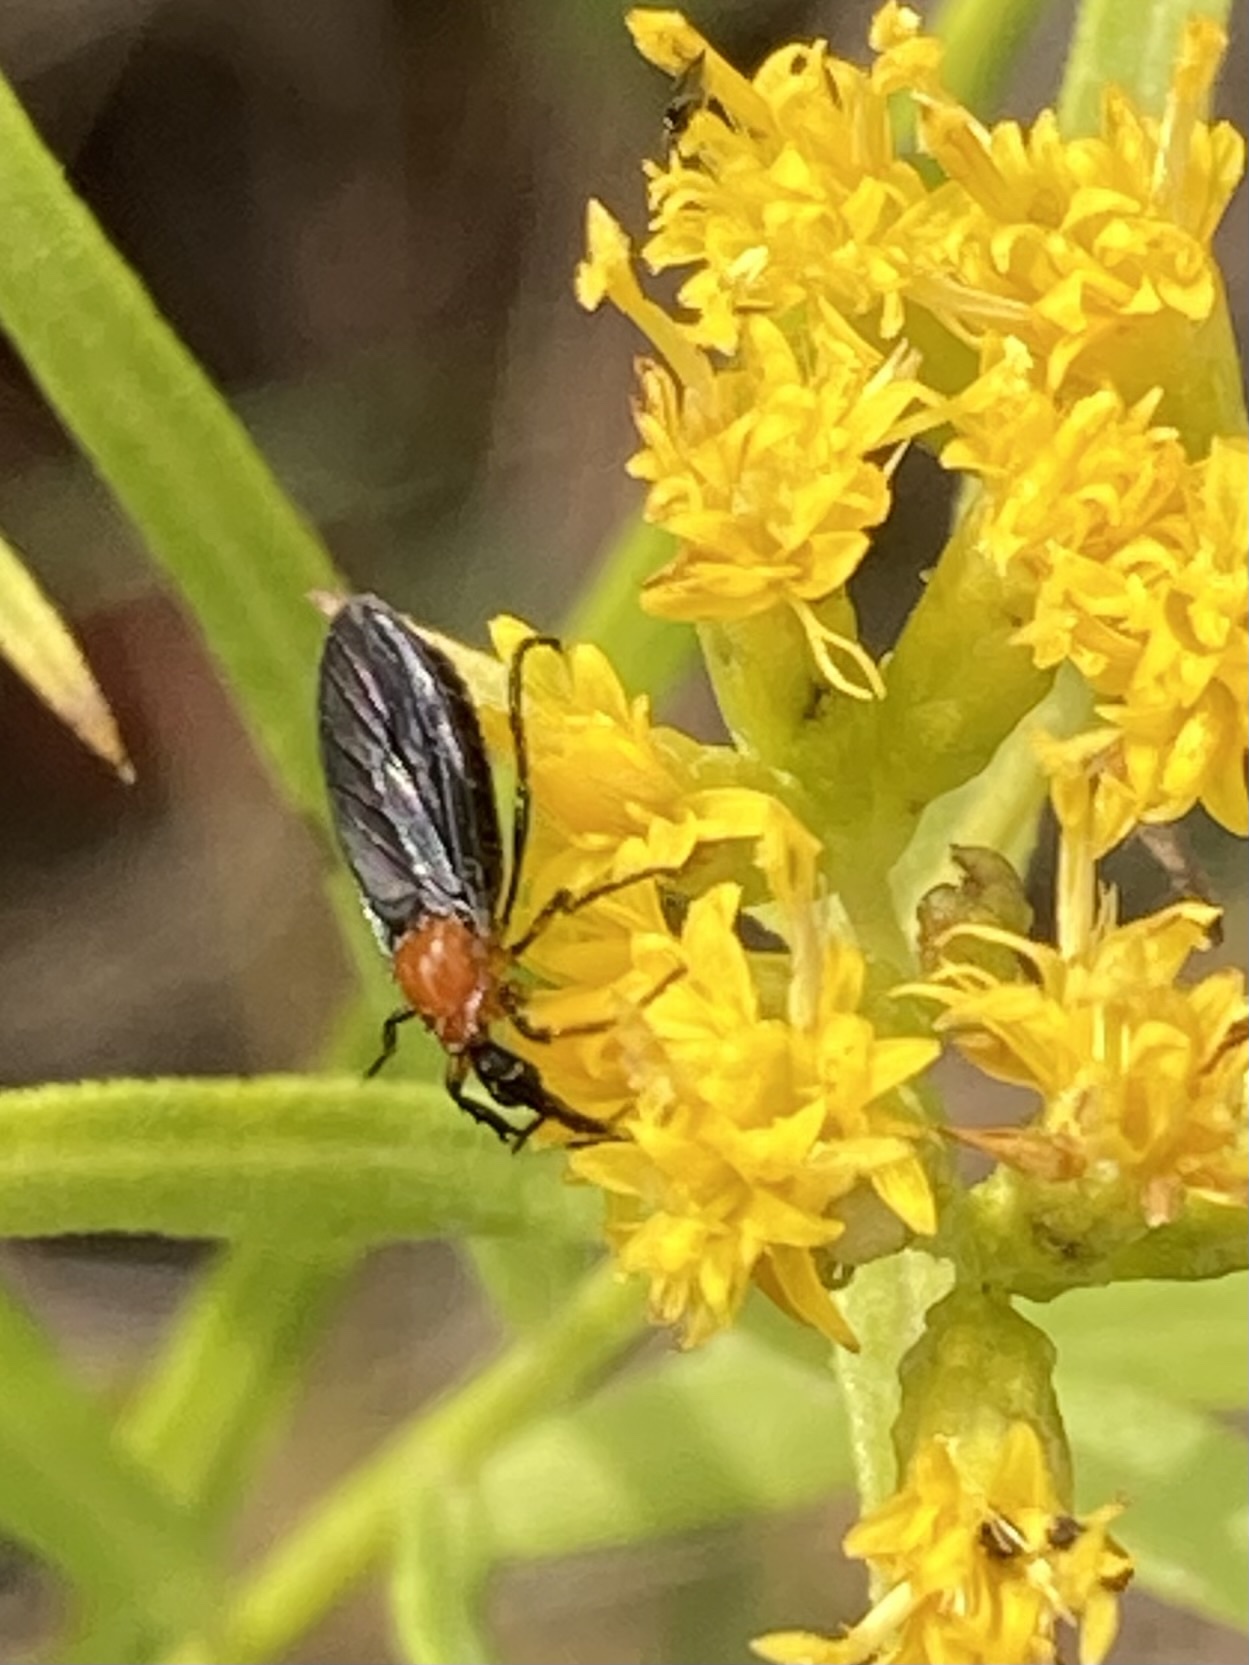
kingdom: Animalia
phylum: Arthropoda
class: Insecta
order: Diptera
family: Bibionidae
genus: Dilophus
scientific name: Dilophus spinipes
